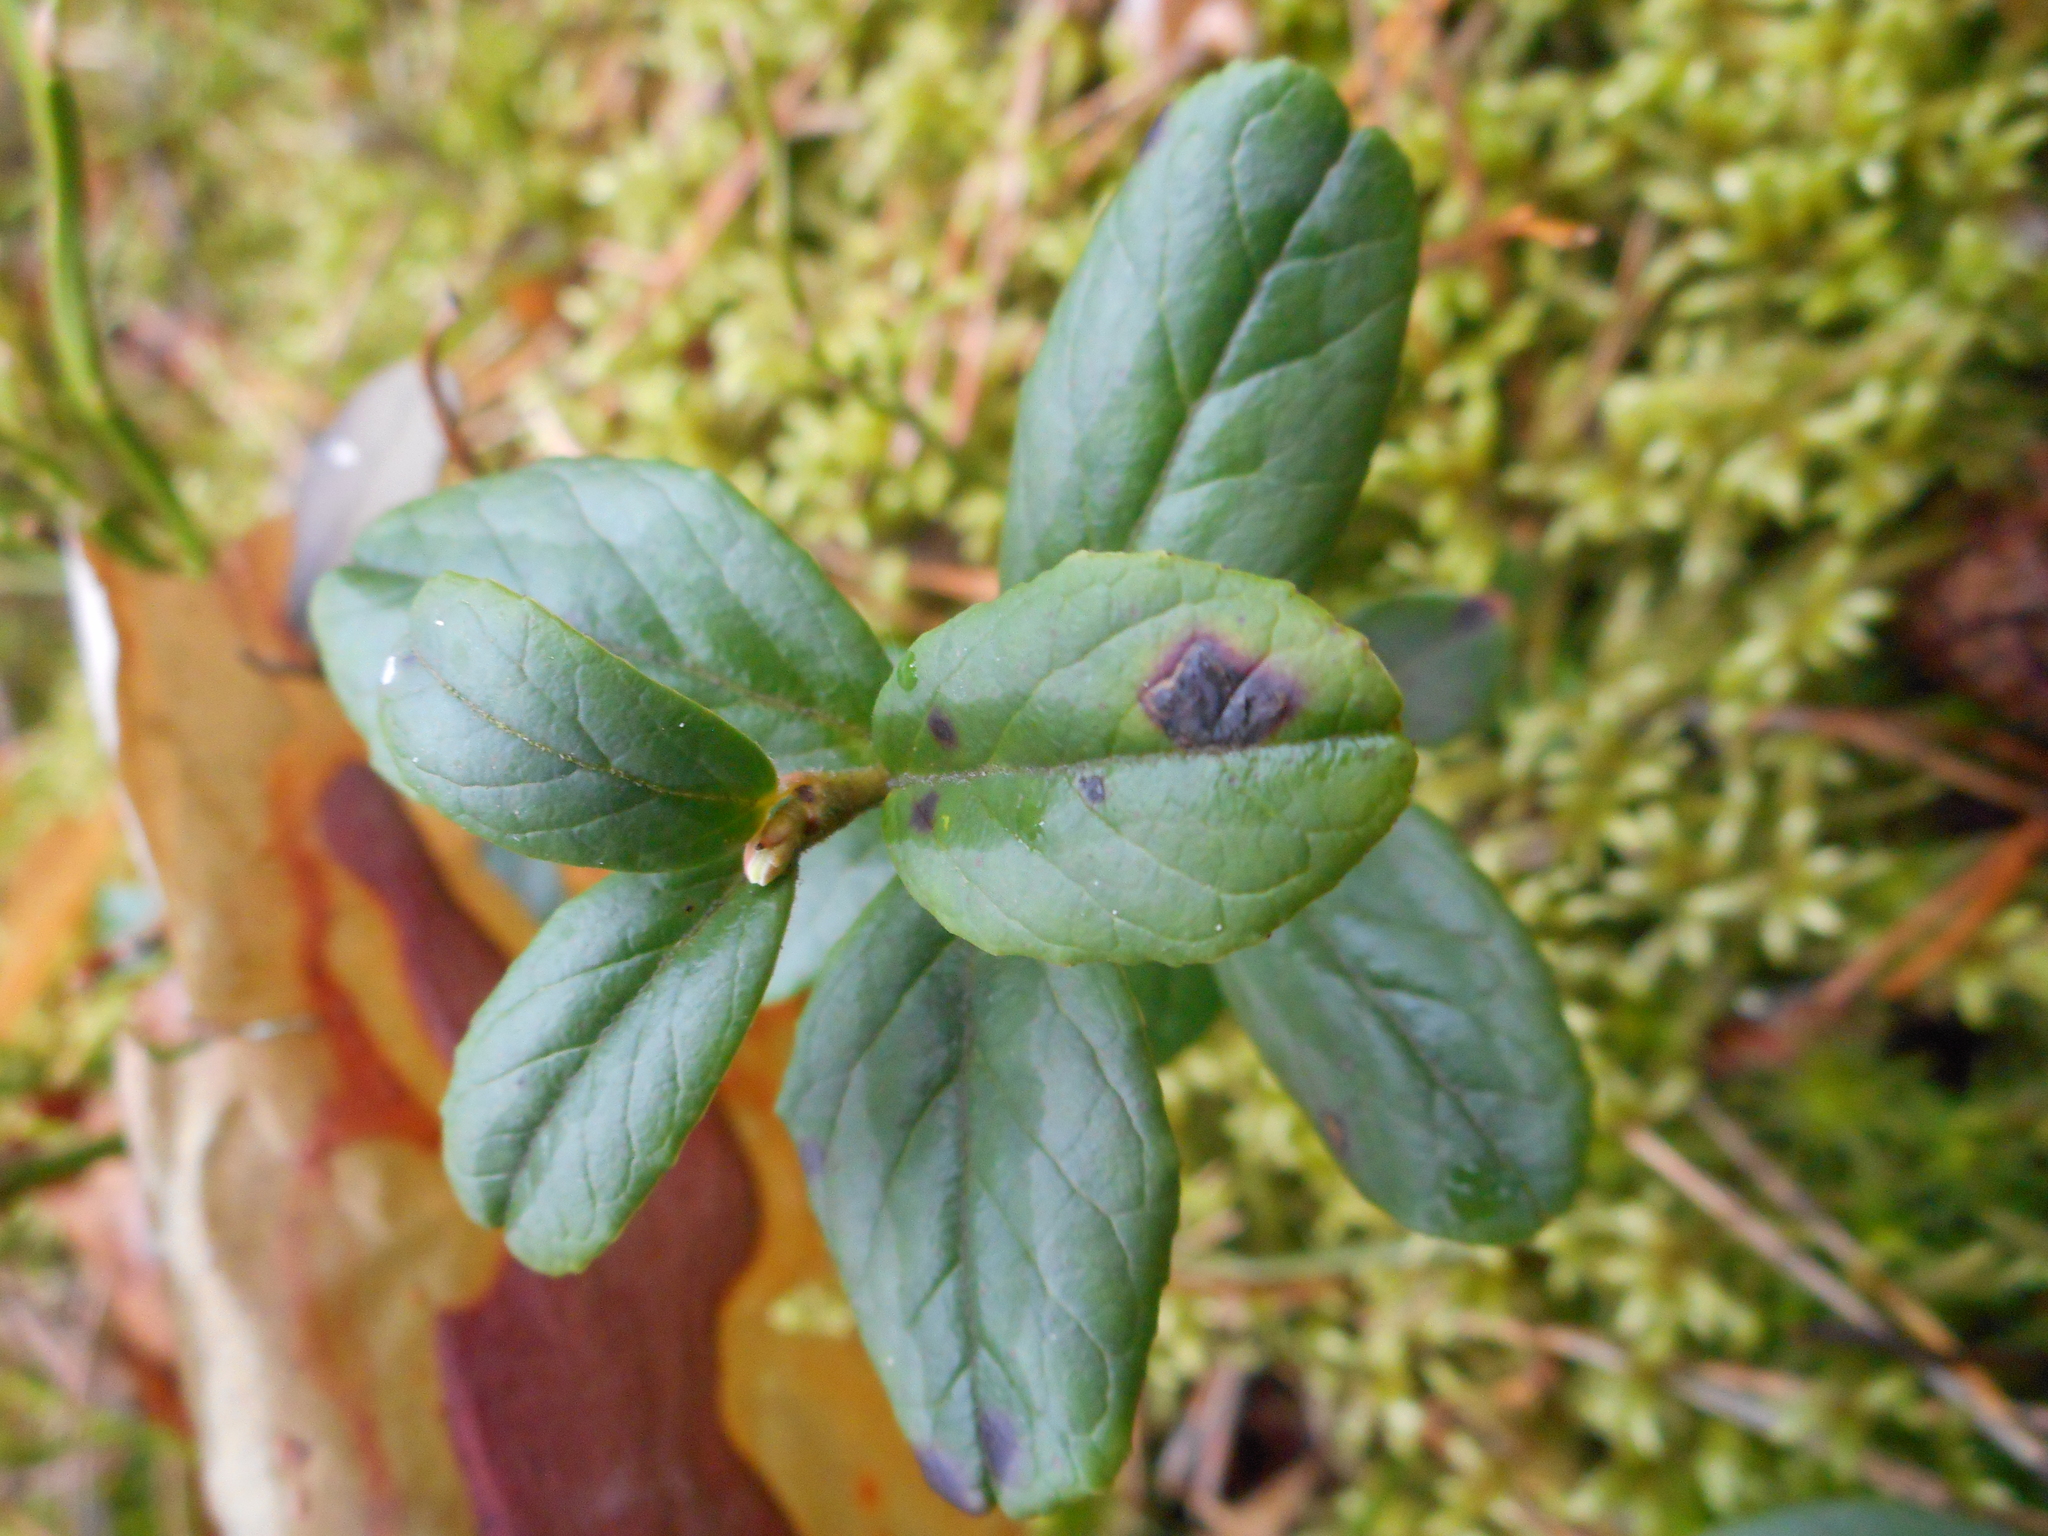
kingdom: Plantae
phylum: Tracheophyta
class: Magnoliopsida
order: Ericales
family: Ericaceae
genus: Vaccinium
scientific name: Vaccinium vitis-idaea
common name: Cowberry
